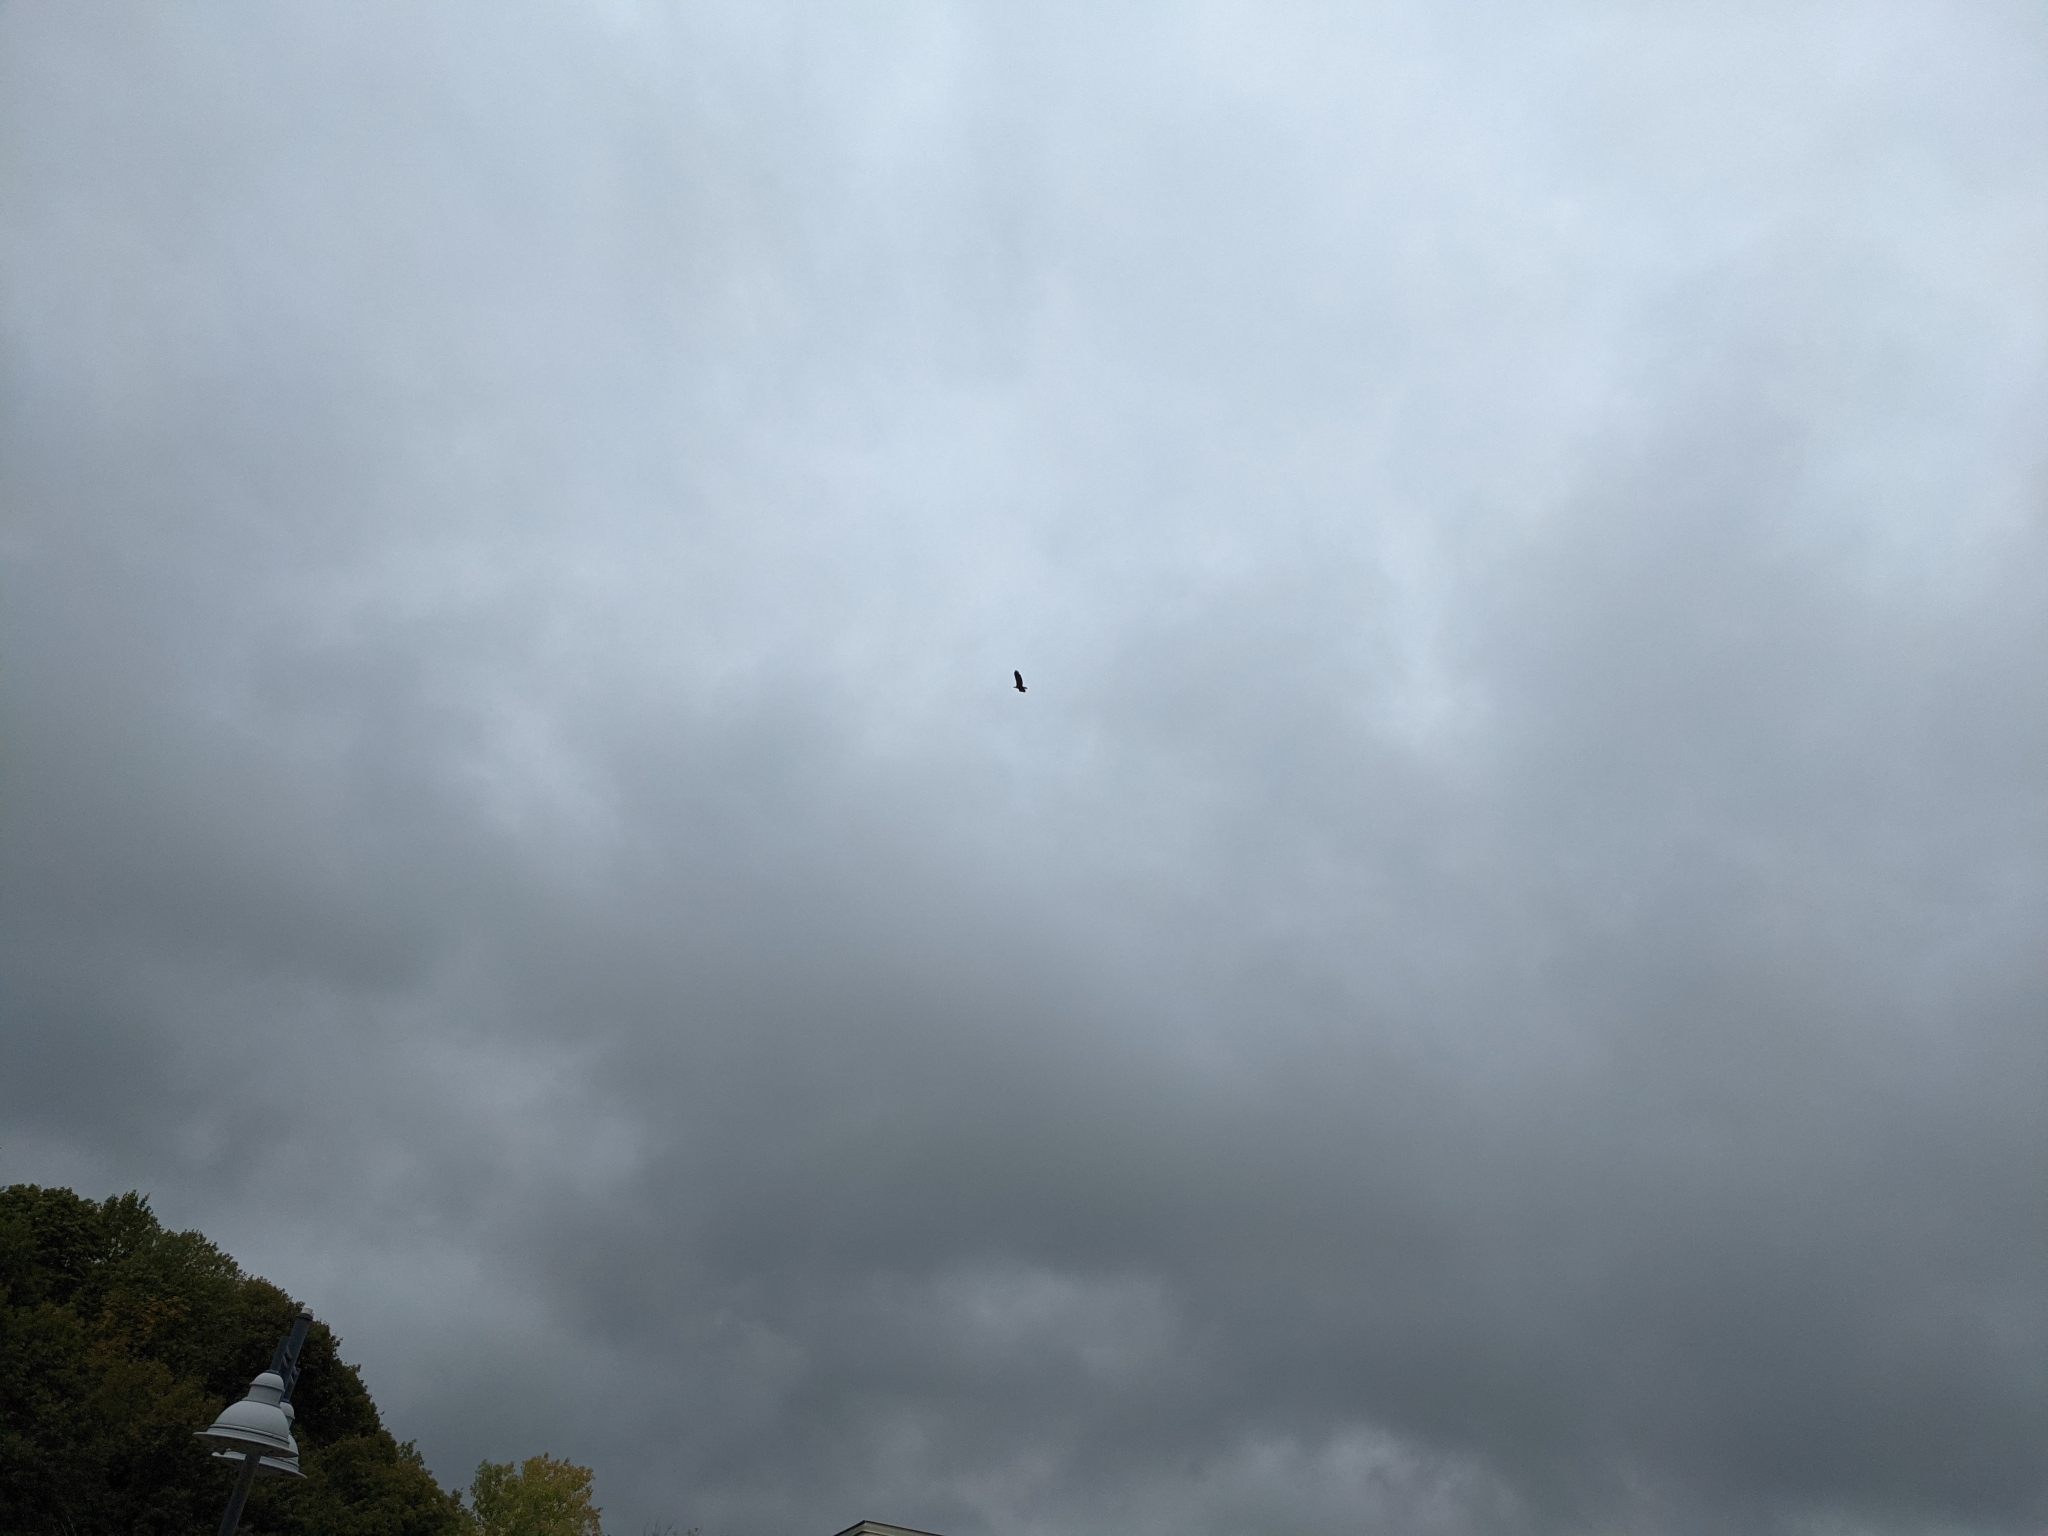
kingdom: Animalia
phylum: Chordata
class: Aves
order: Accipitriformes
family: Accipitridae
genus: Haliaeetus
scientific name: Haliaeetus leucocephalus
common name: Bald eagle
